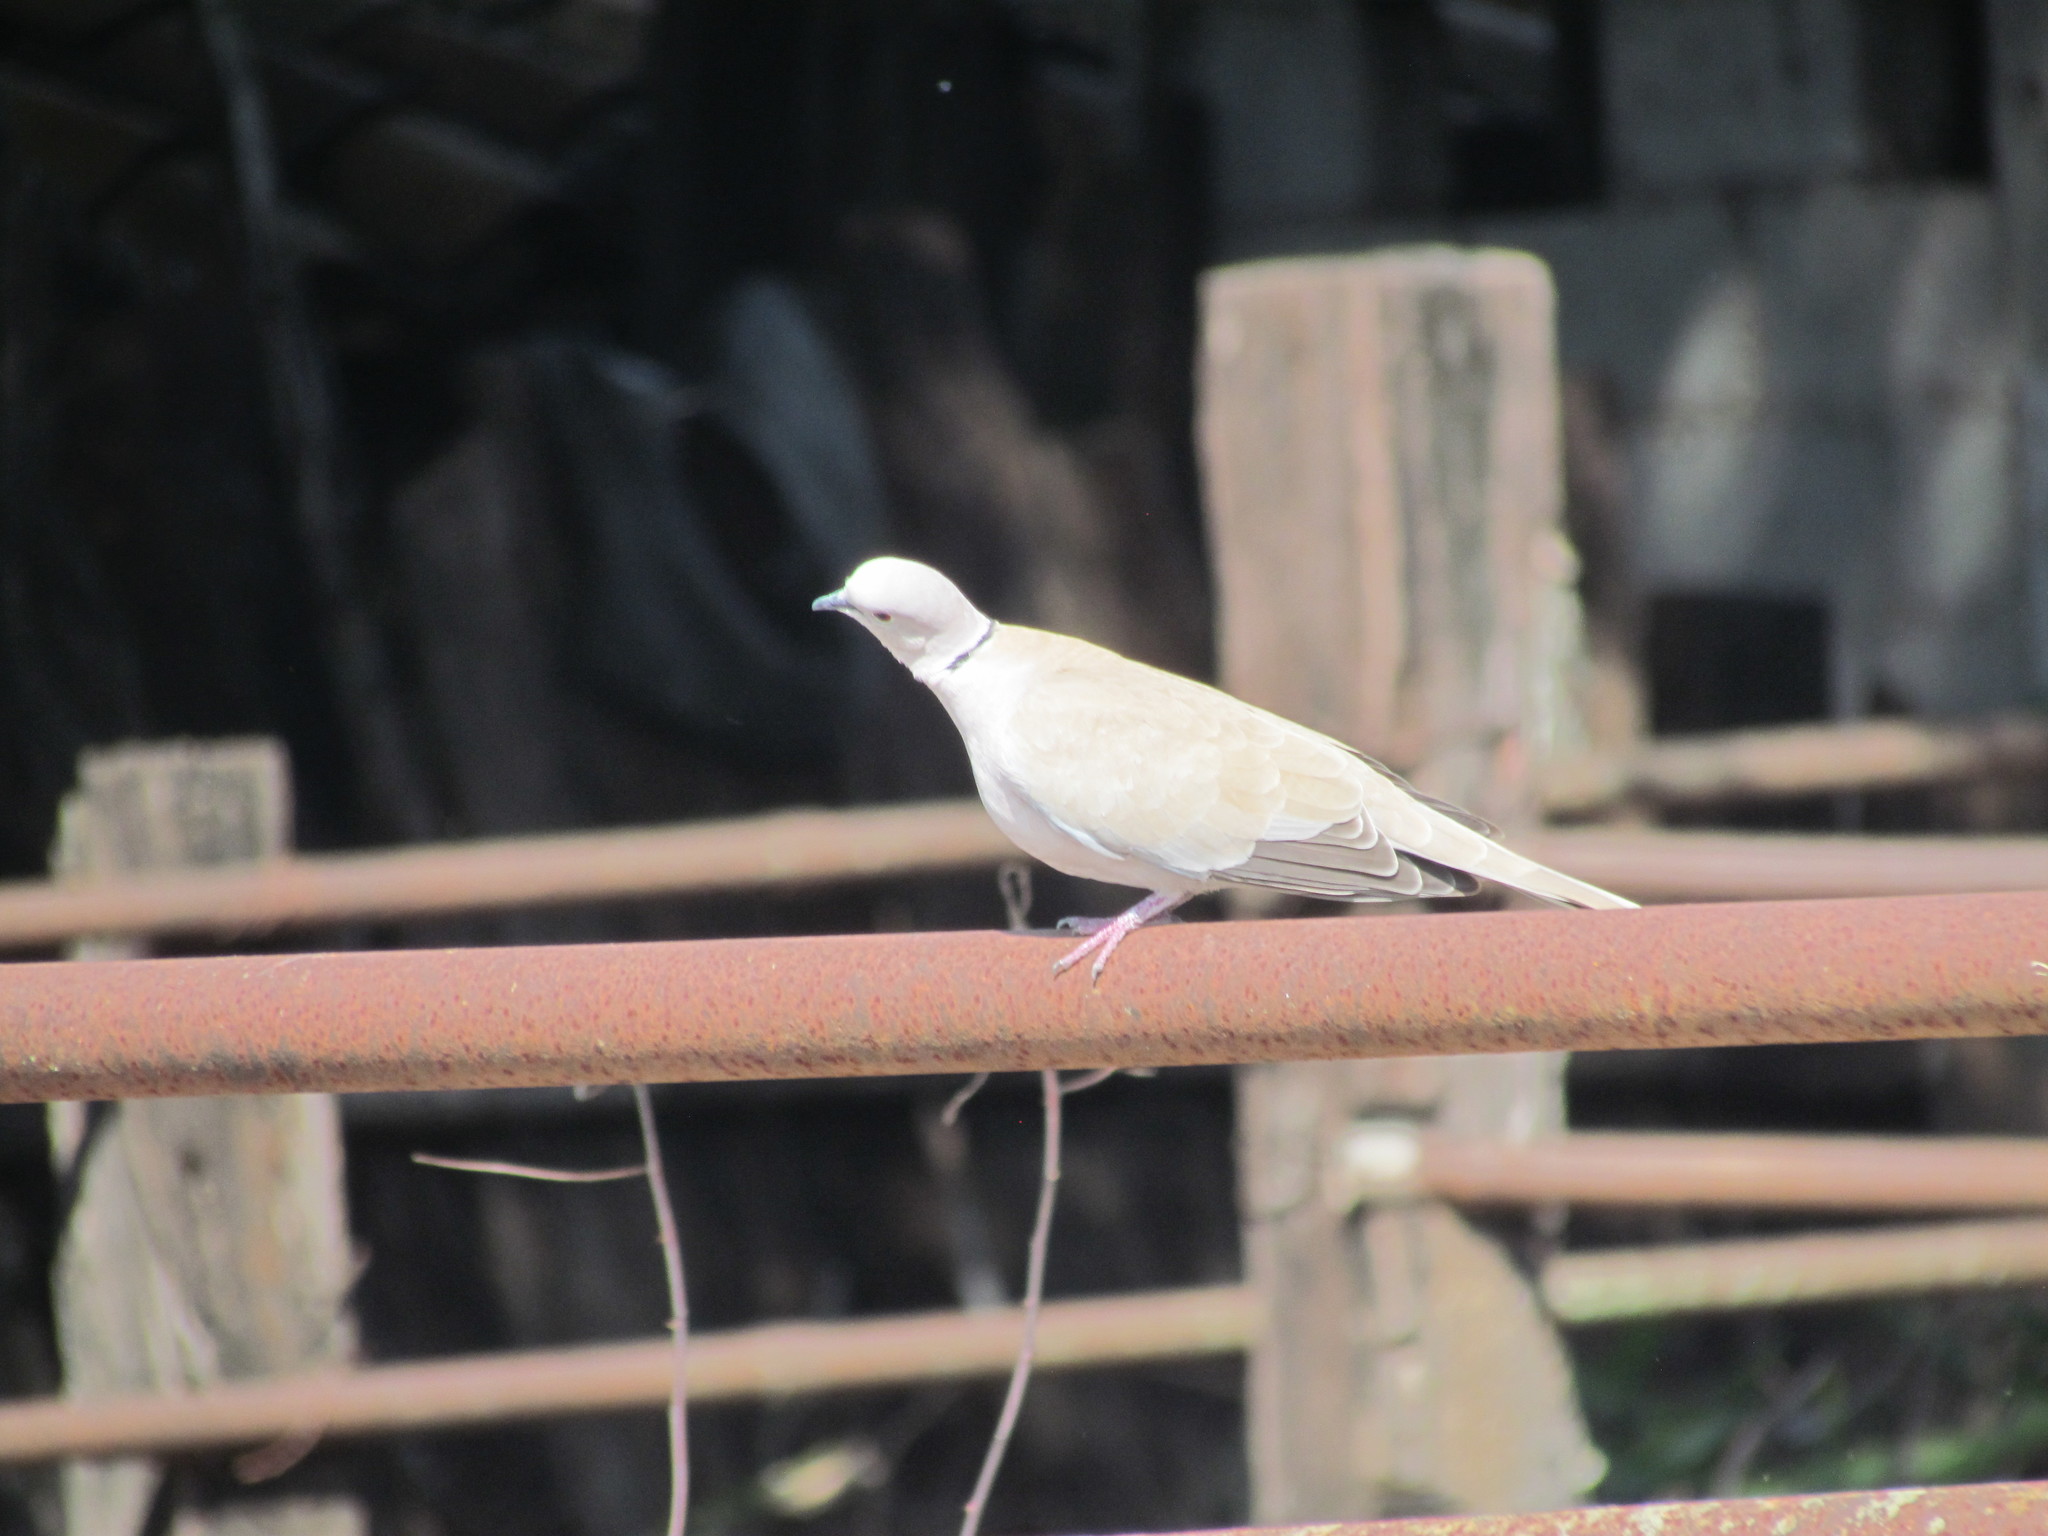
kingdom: Animalia
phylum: Chordata
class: Aves
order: Columbiformes
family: Columbidae
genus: Streptopelia
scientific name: Streptopelia decaocto
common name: Eurasian collared dove
